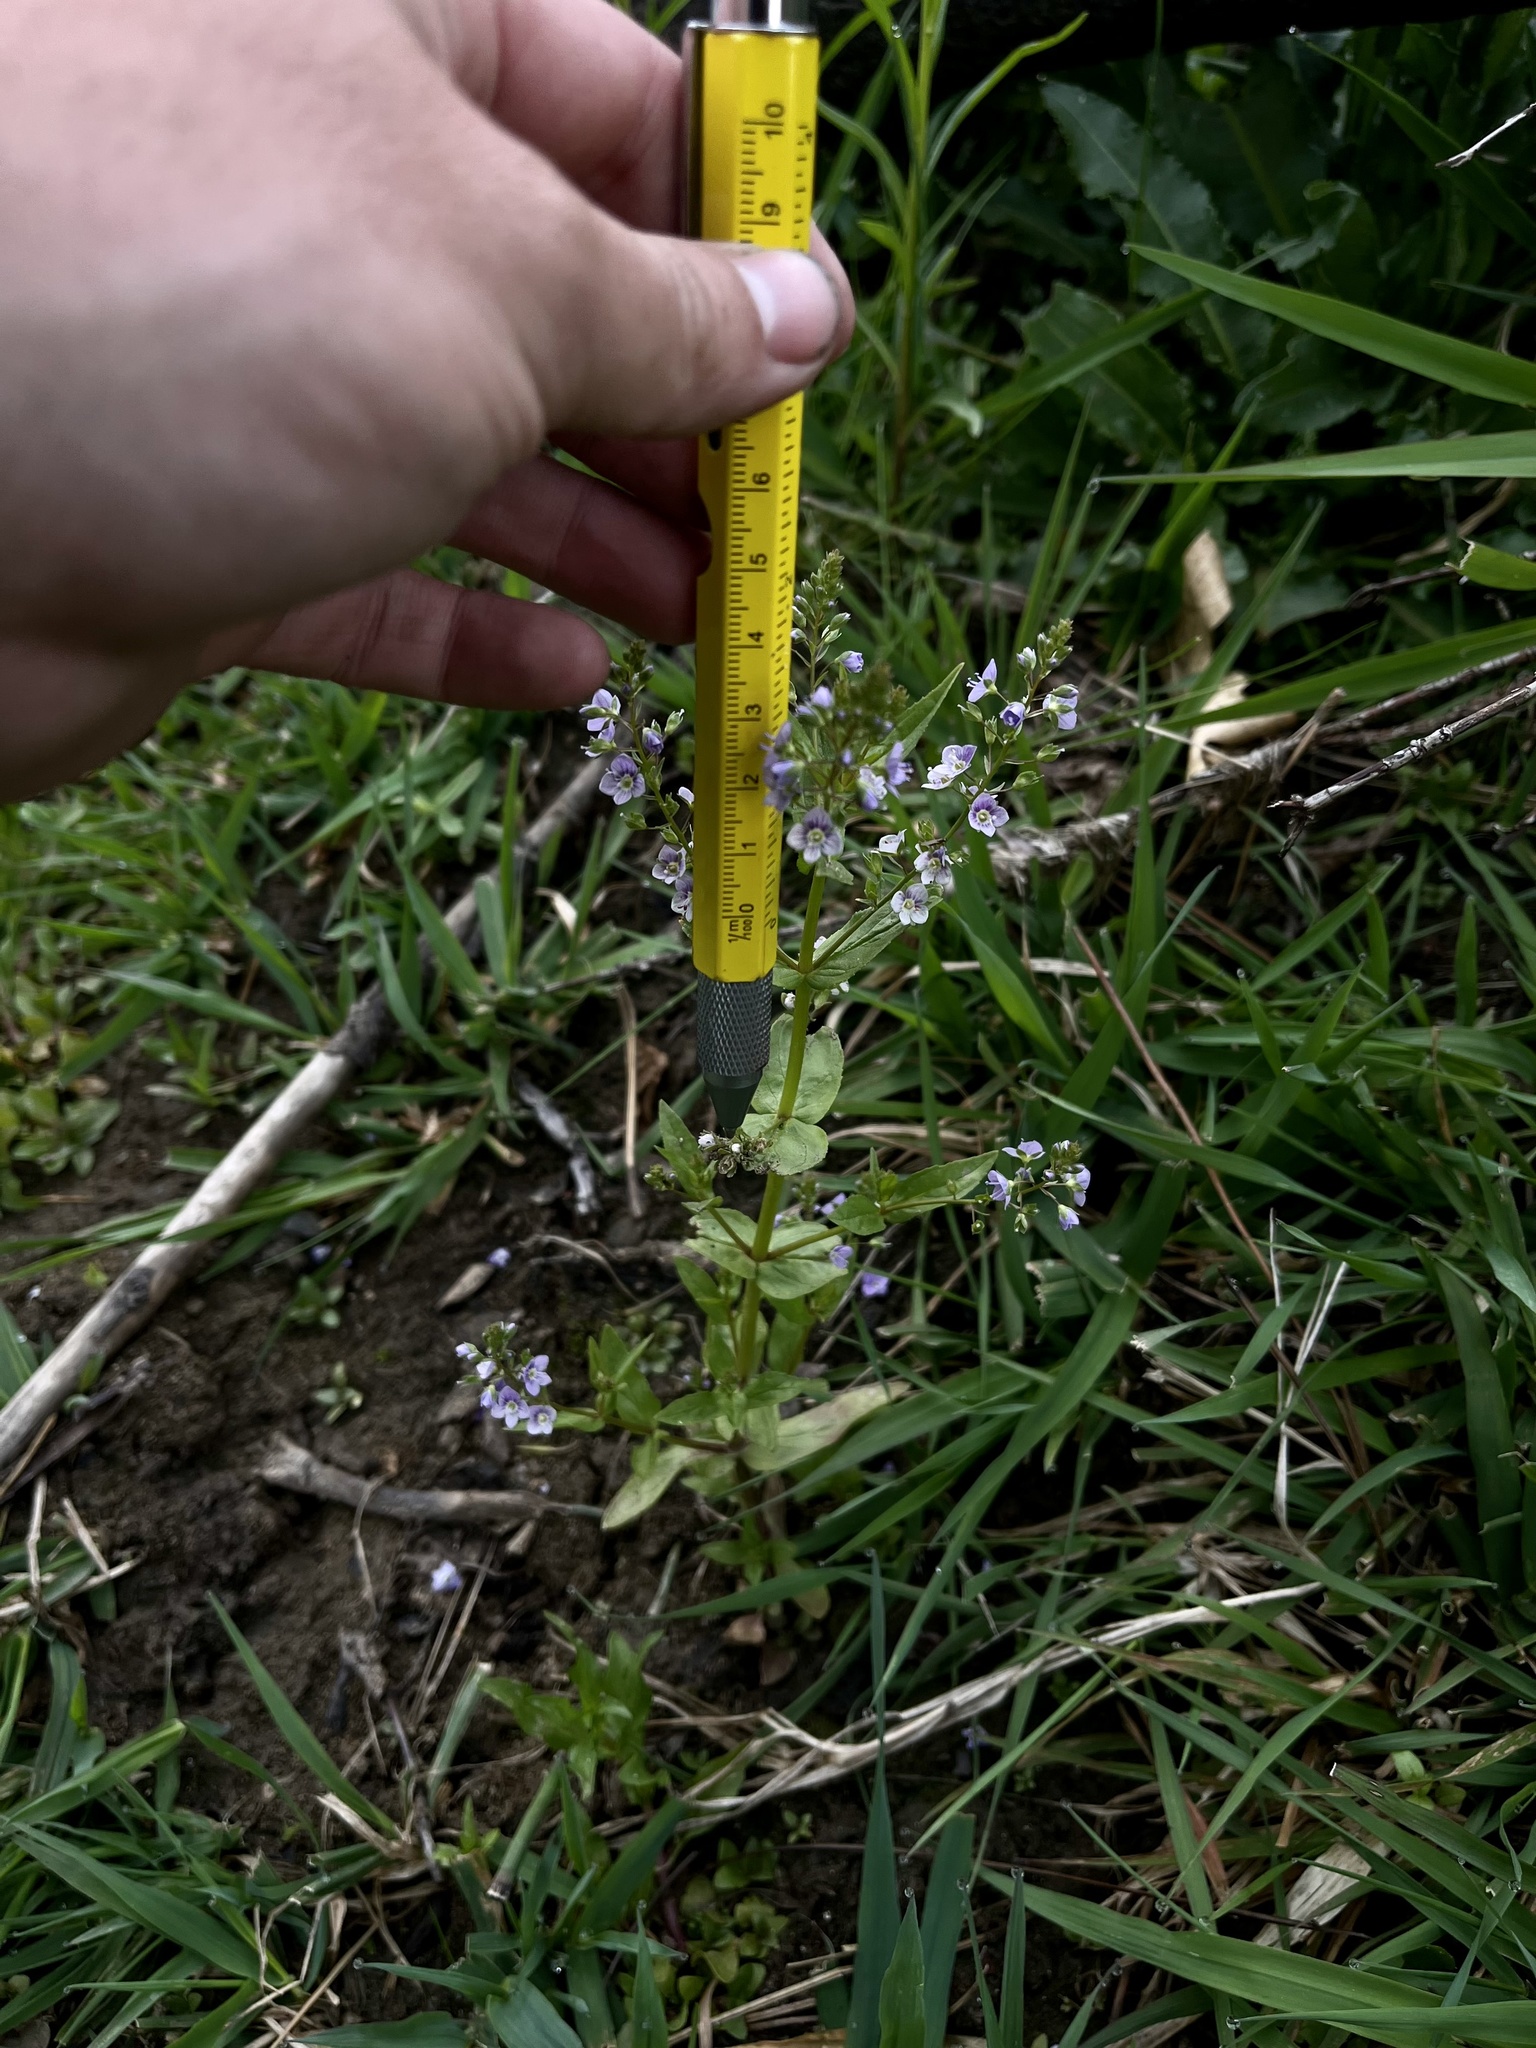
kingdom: Plantae
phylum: Tracheophyta
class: Magnoliopsida
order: Lamiales
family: Plantaginaceae
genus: Veronica
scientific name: Veronica anagallis-aquatica
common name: Water speedwell
